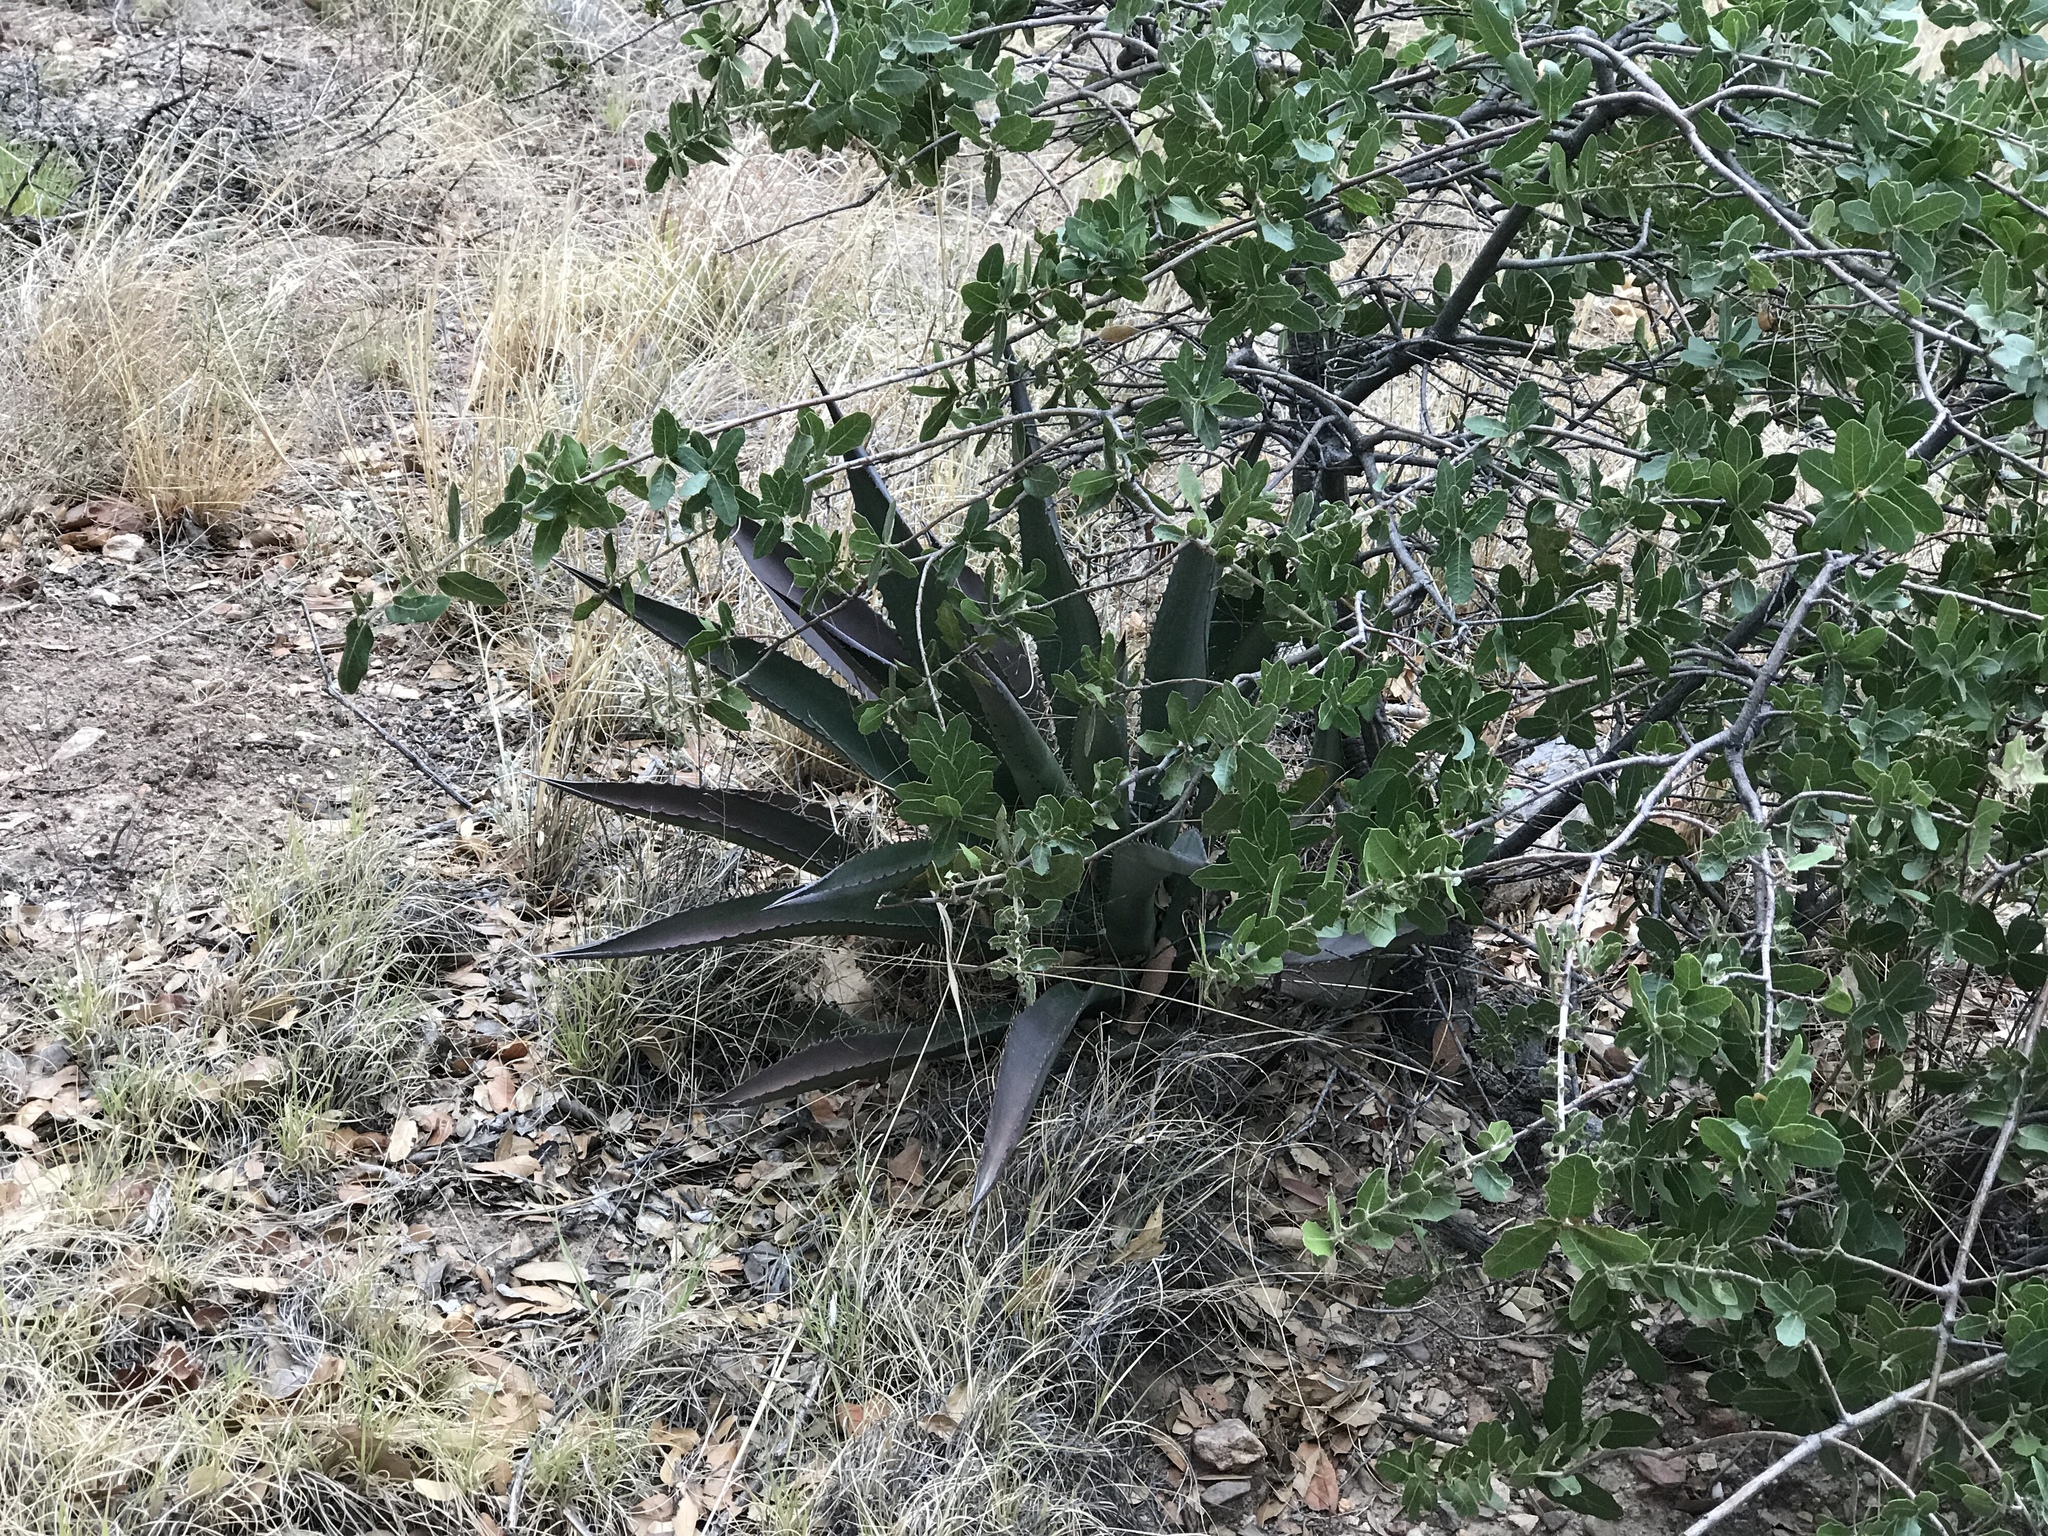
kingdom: Plantae
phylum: Tracheophyta
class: Liliopsida
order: Asparagales
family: Asparagaceae
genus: Agave
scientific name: Agave palmeri
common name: Palmer agave
